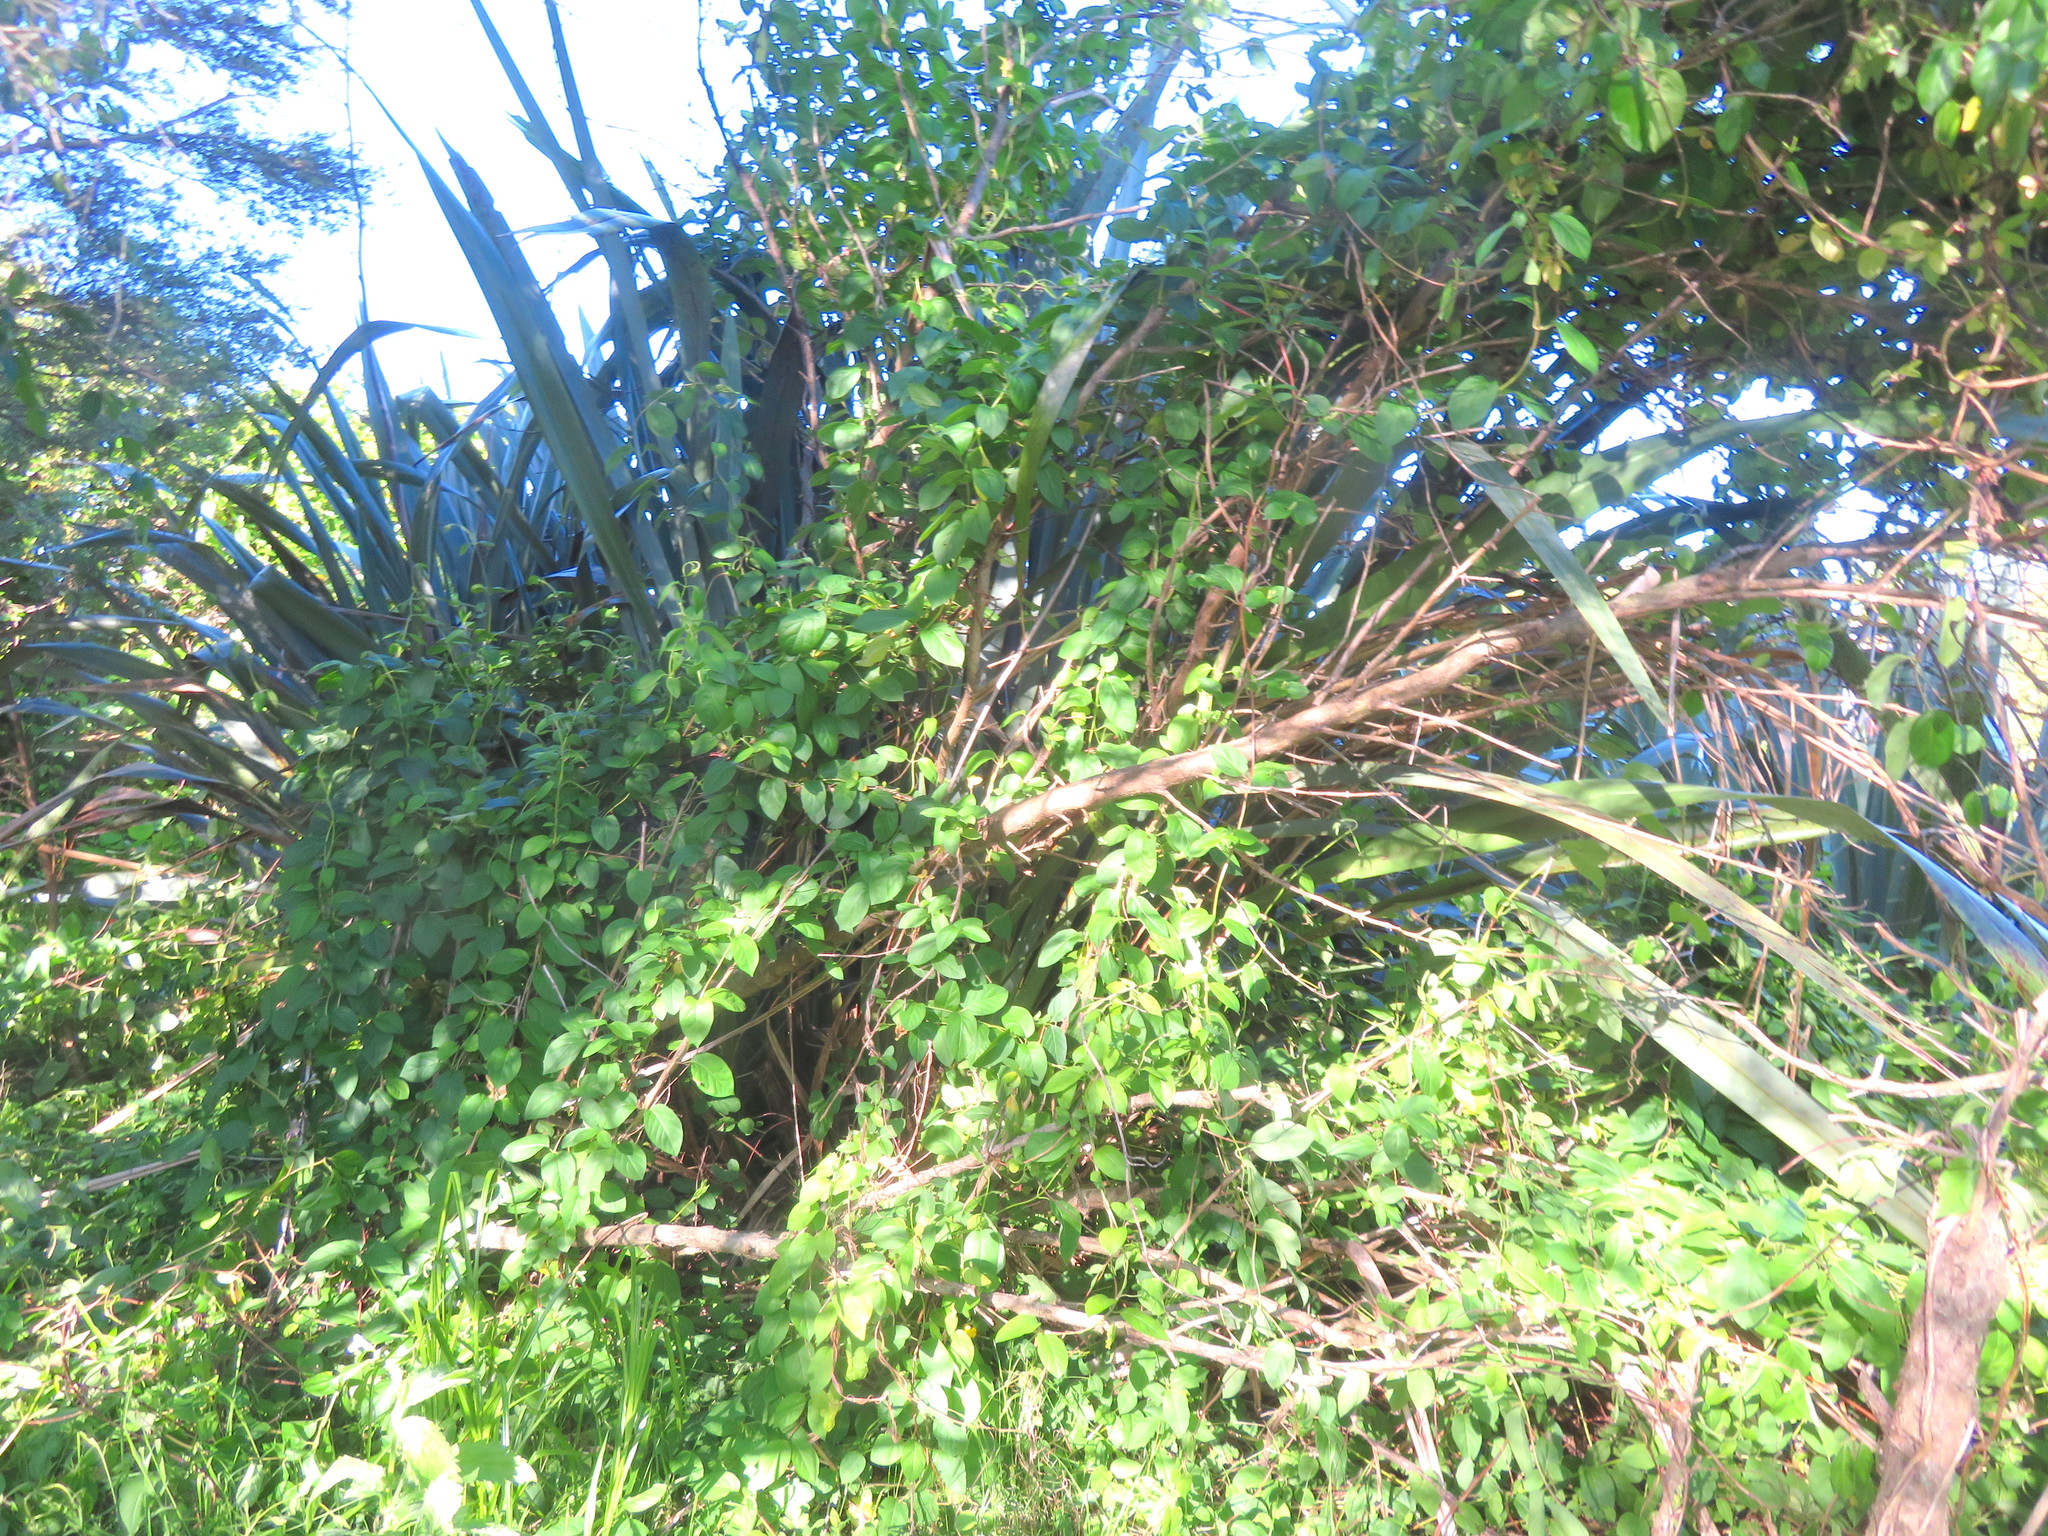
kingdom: Plantae
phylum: Tracheophyta
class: Magnoliopsida
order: Dipsacales
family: Caprifoliaceae
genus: Lonicera
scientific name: Lonicera japonica
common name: Japanese honeysuckle
